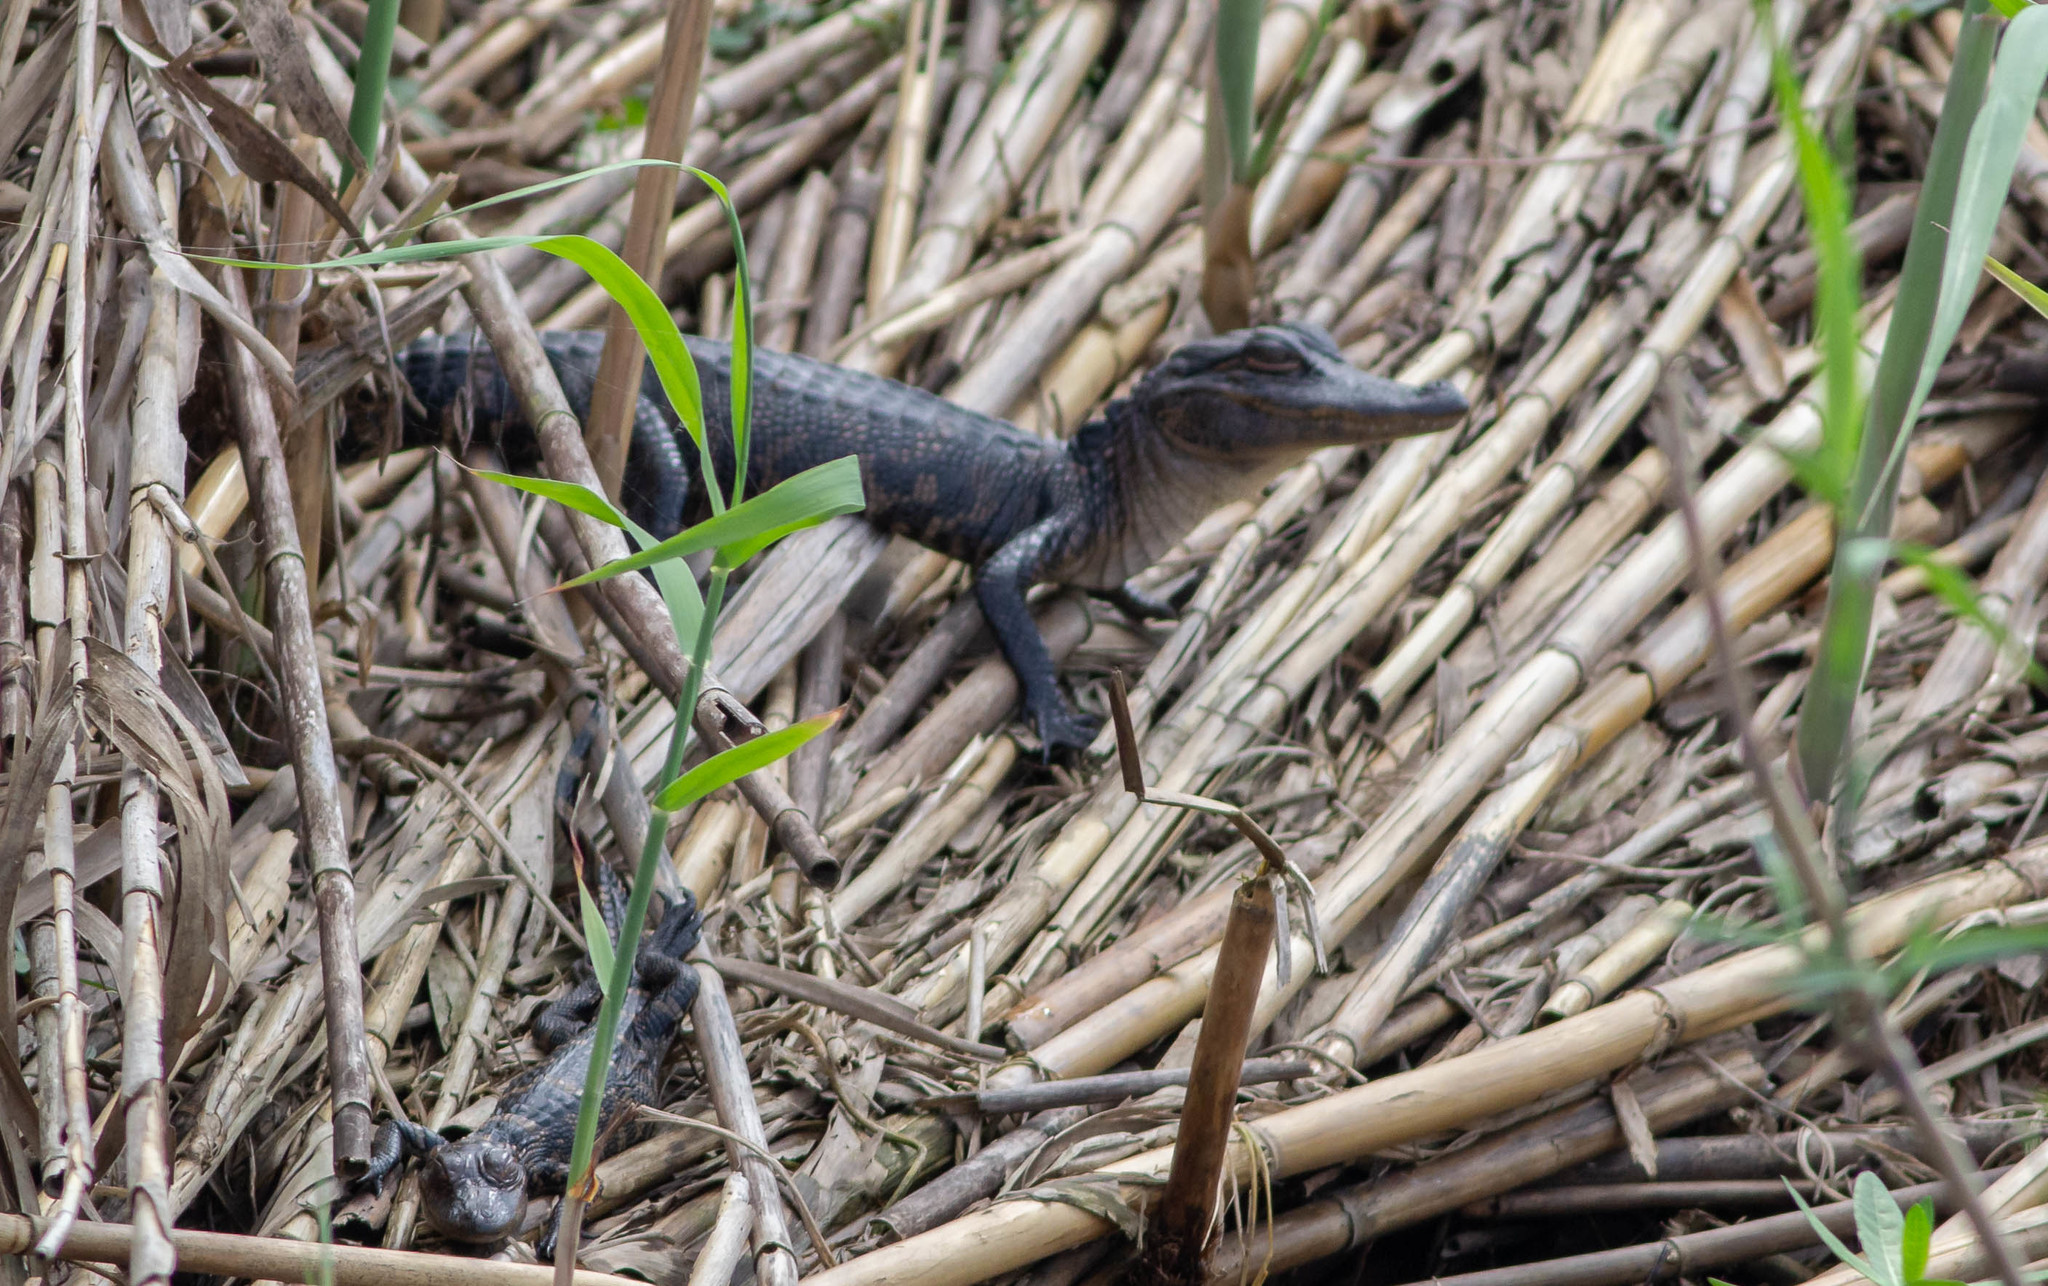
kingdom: Animalia
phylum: Chordata
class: Crocodylia
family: Alligatoridae
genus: Alligator
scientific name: Alligator mississippiensis
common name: American alligator
